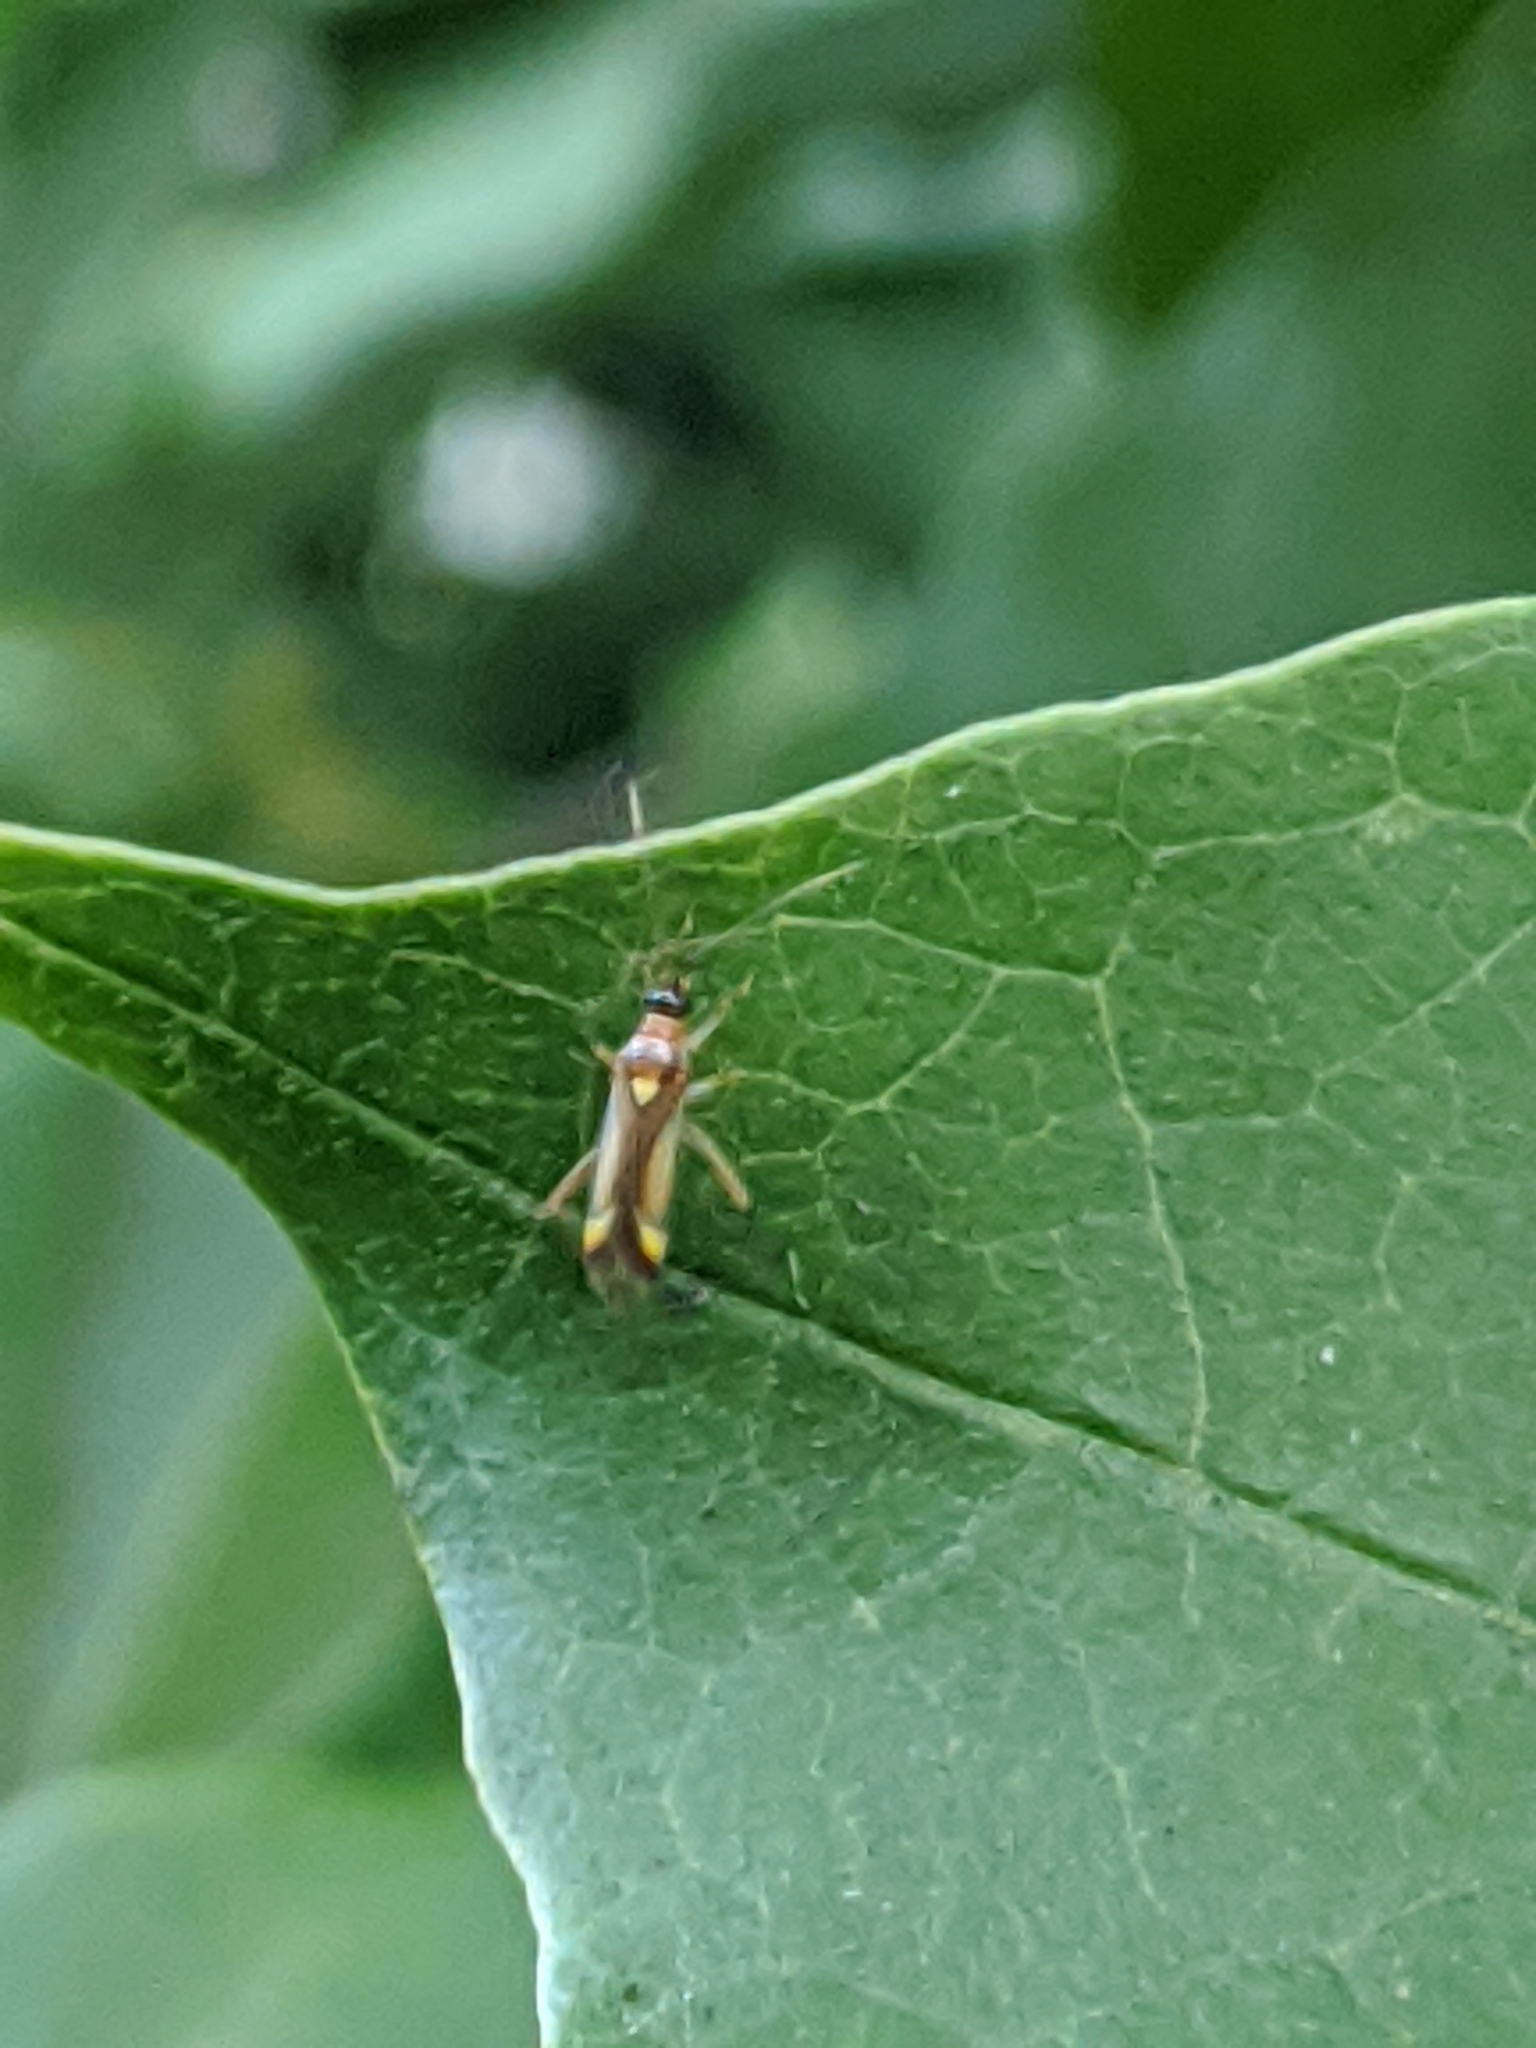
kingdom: Animalia
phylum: Arthropoda
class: Insecta
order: Hemiptera
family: Miridae
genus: Campyloneura
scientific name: Campyloneura virgula
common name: Predatory bug
